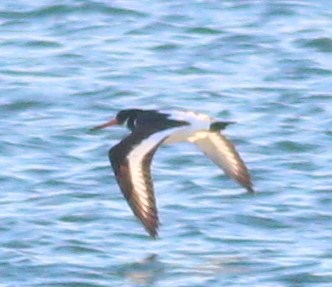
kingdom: Animalia
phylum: Chordata
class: Aves
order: Charadriiformes
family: Haematopodidae
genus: Haematopus
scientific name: Haematopus ostralegus
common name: Eurasian oystercatcher
